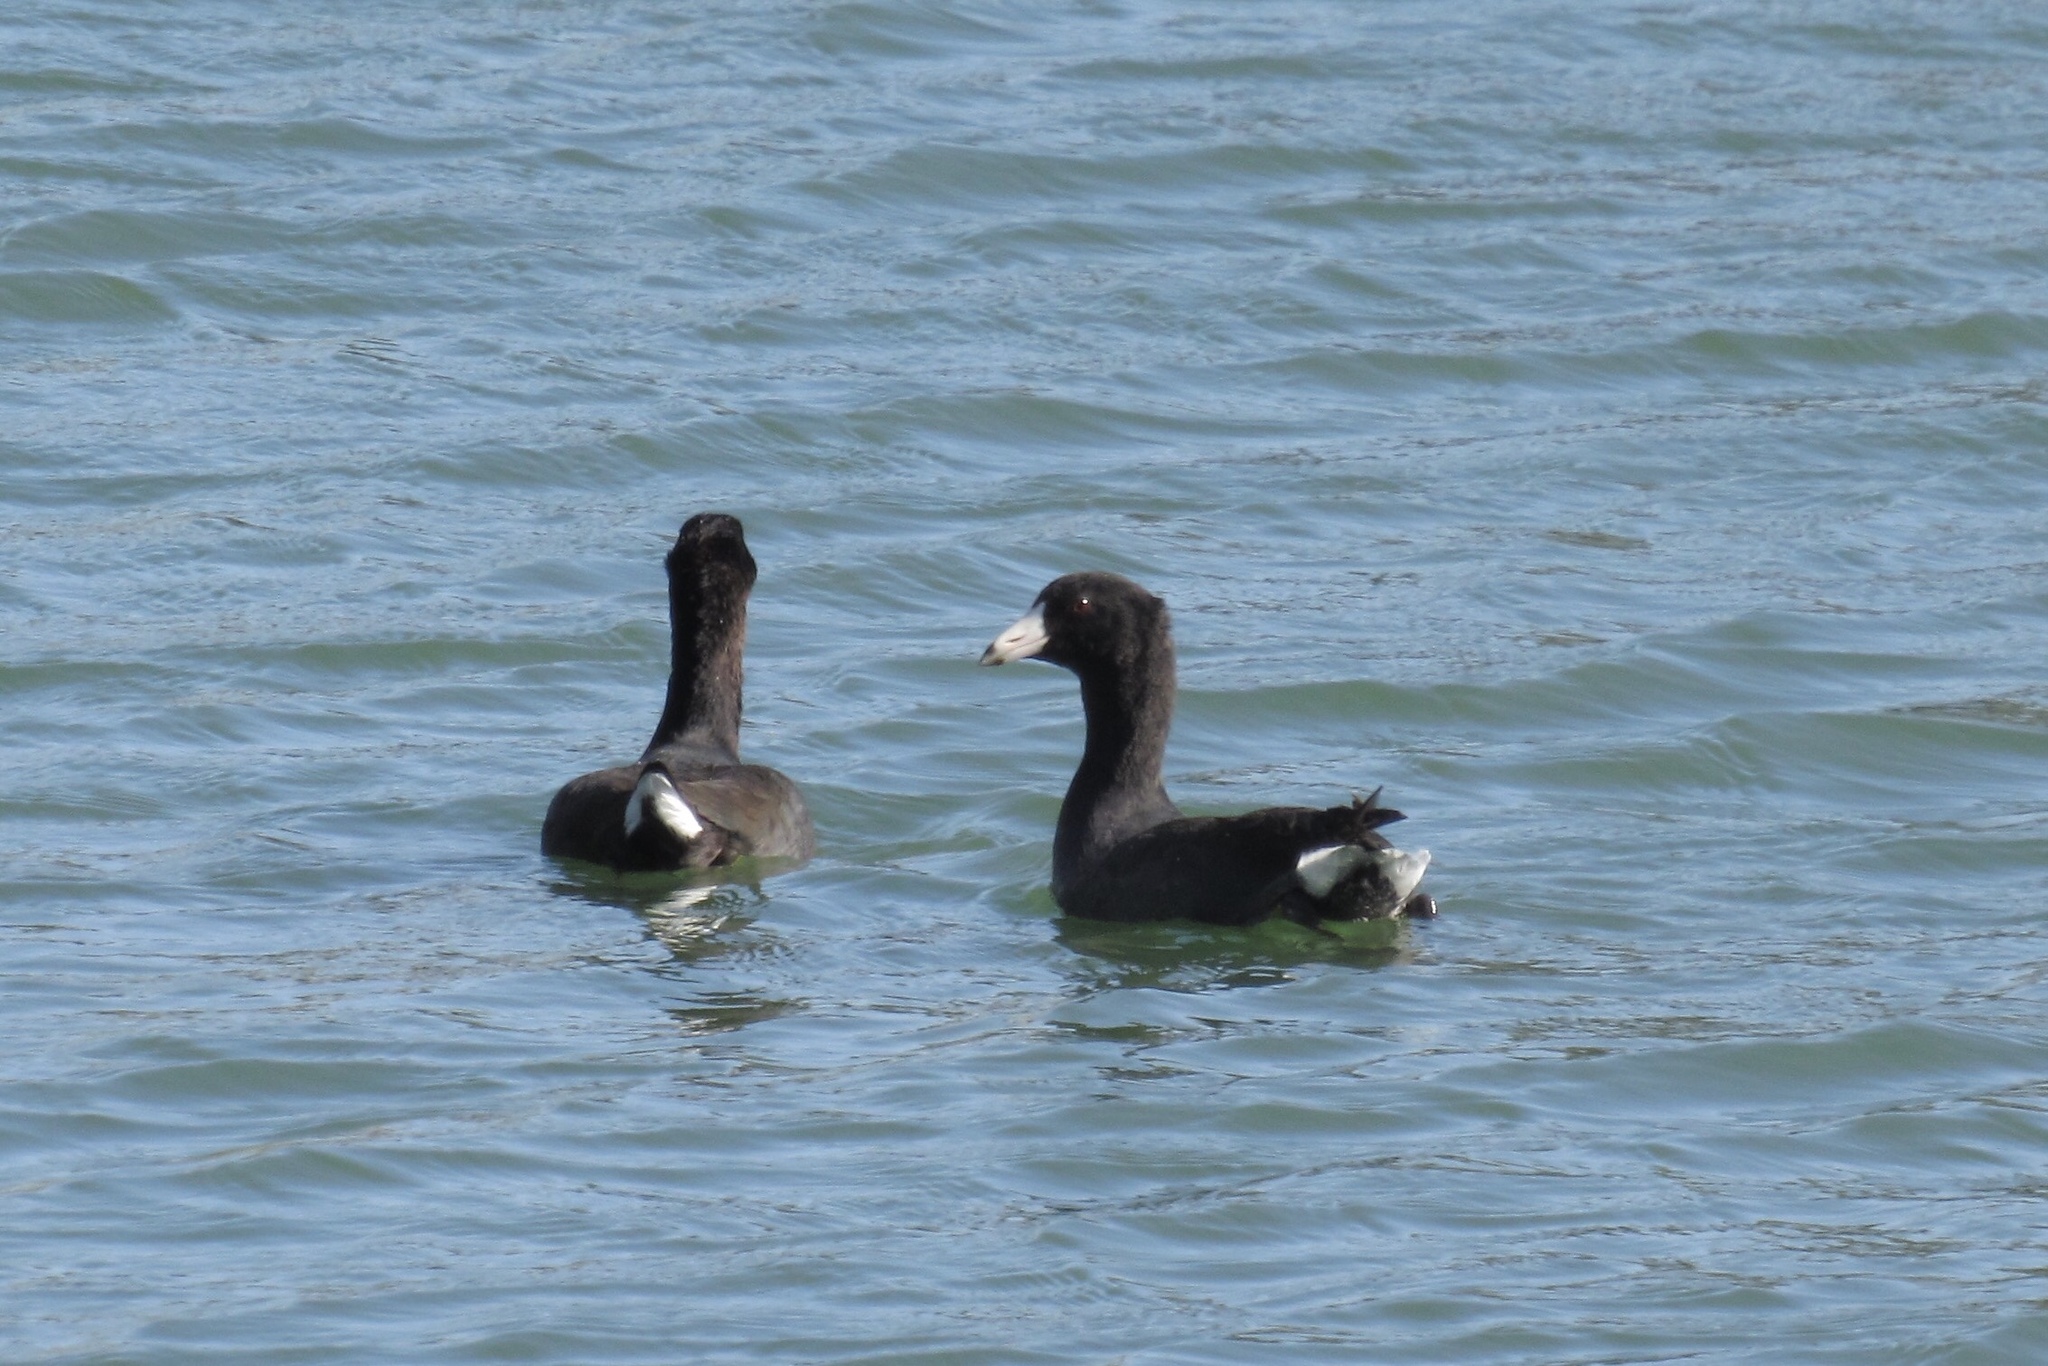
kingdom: Animalia
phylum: Chordata
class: Aves
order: Gruiformes
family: Rallidae
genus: Fulica
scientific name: Fulica americana
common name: American coot
